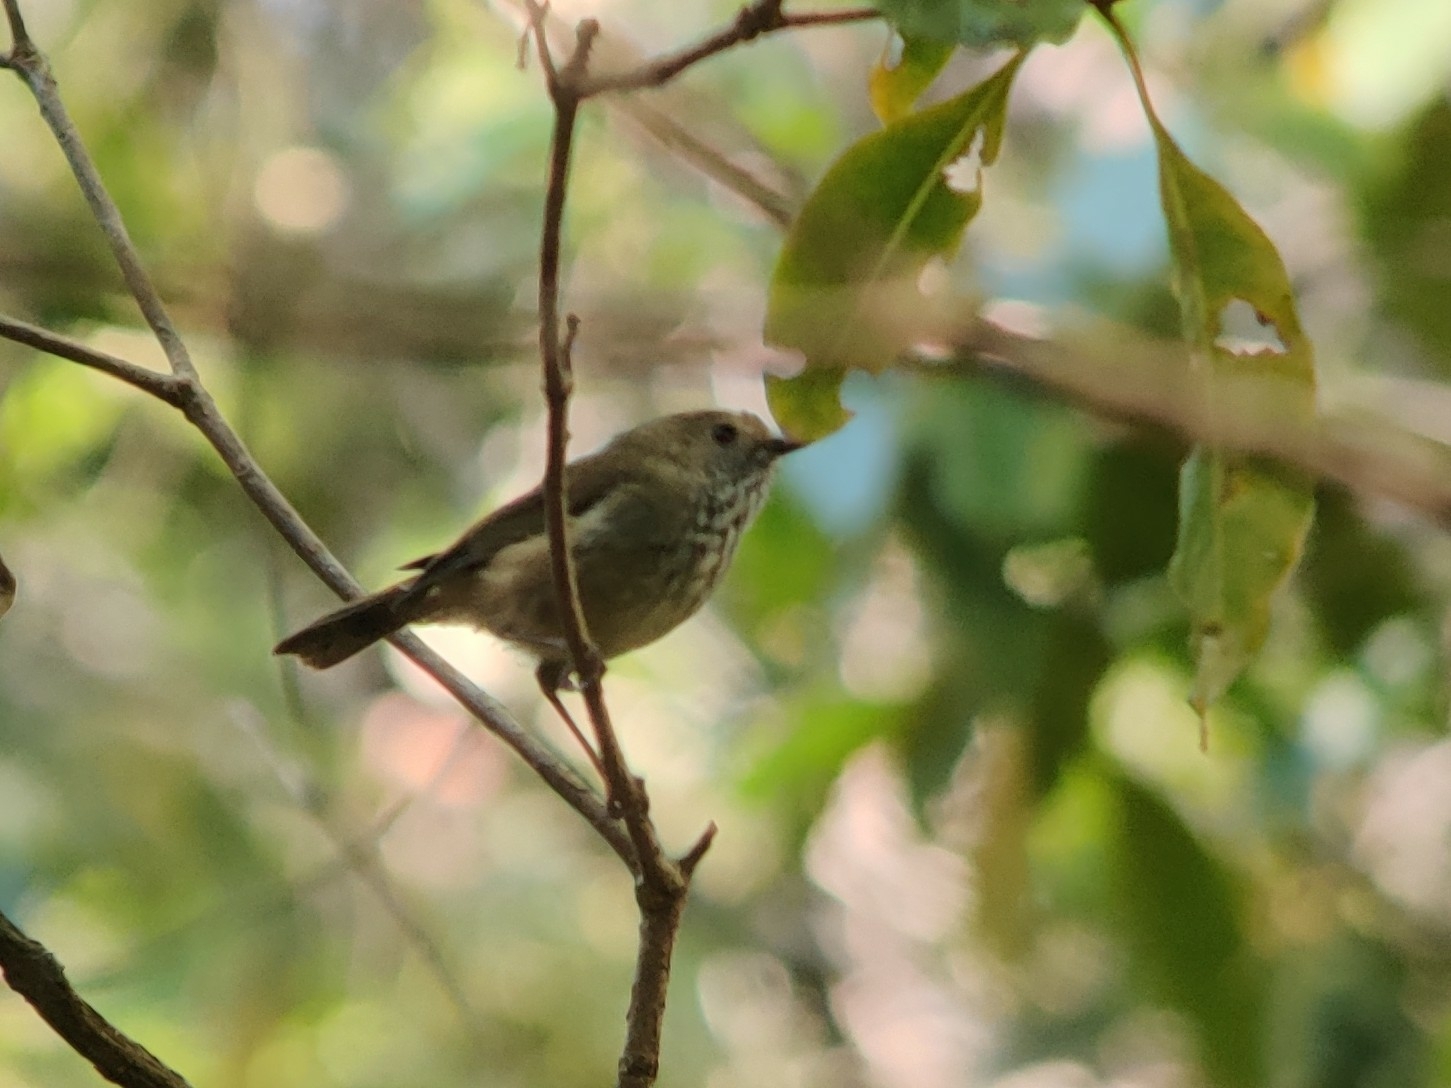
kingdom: Animalia
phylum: Chordata
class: Aves
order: Passeriformes
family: Acanthizidae
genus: Acanthiza
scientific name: Acanthiza pusilla
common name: Brown thornbill
